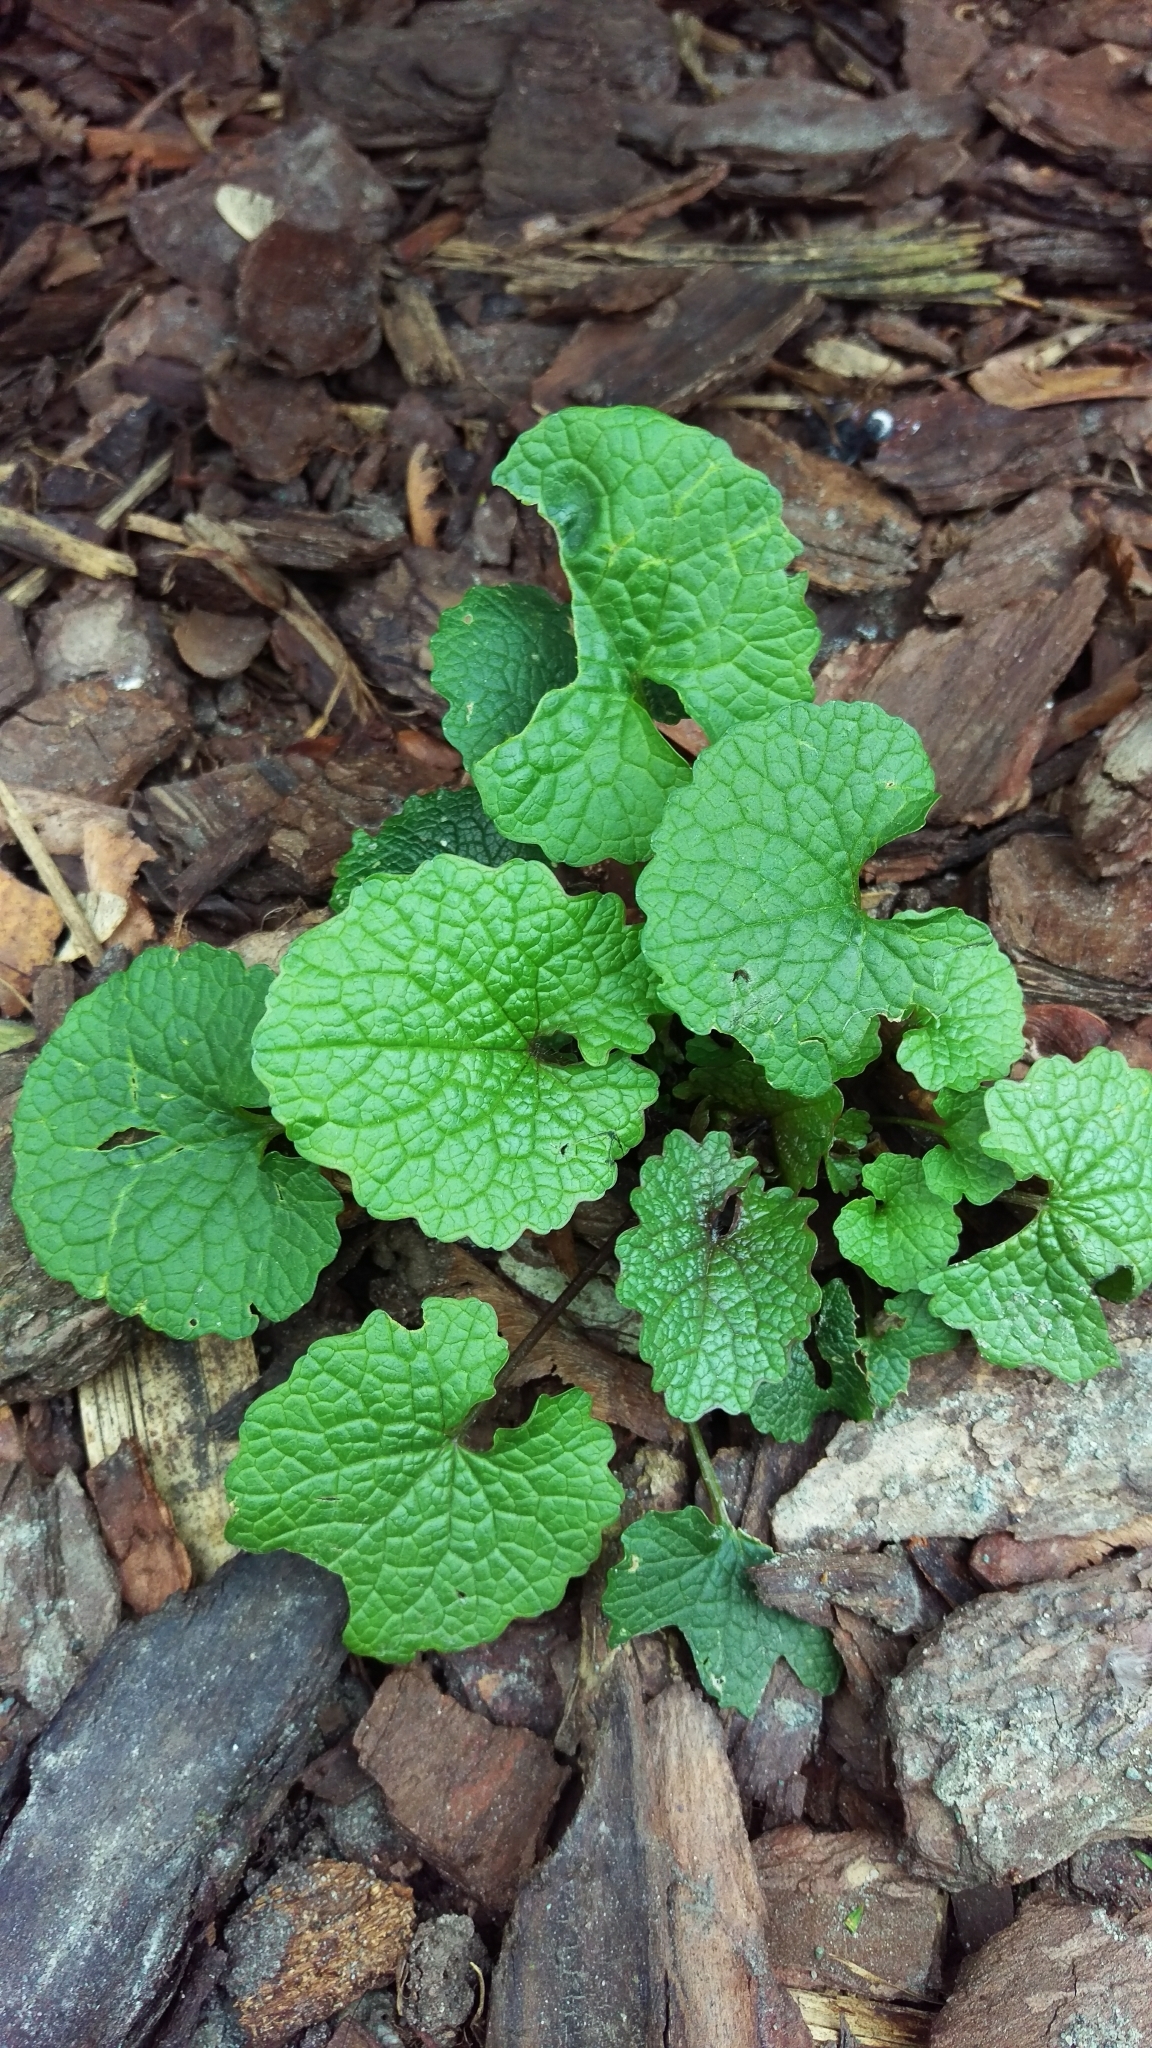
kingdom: Plantae
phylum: Tracheophyta
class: Magnoliopsida
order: Brassicales
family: Brassicaceae
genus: Alliaria
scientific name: Alliaria petiolata
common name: Garlic mustard
